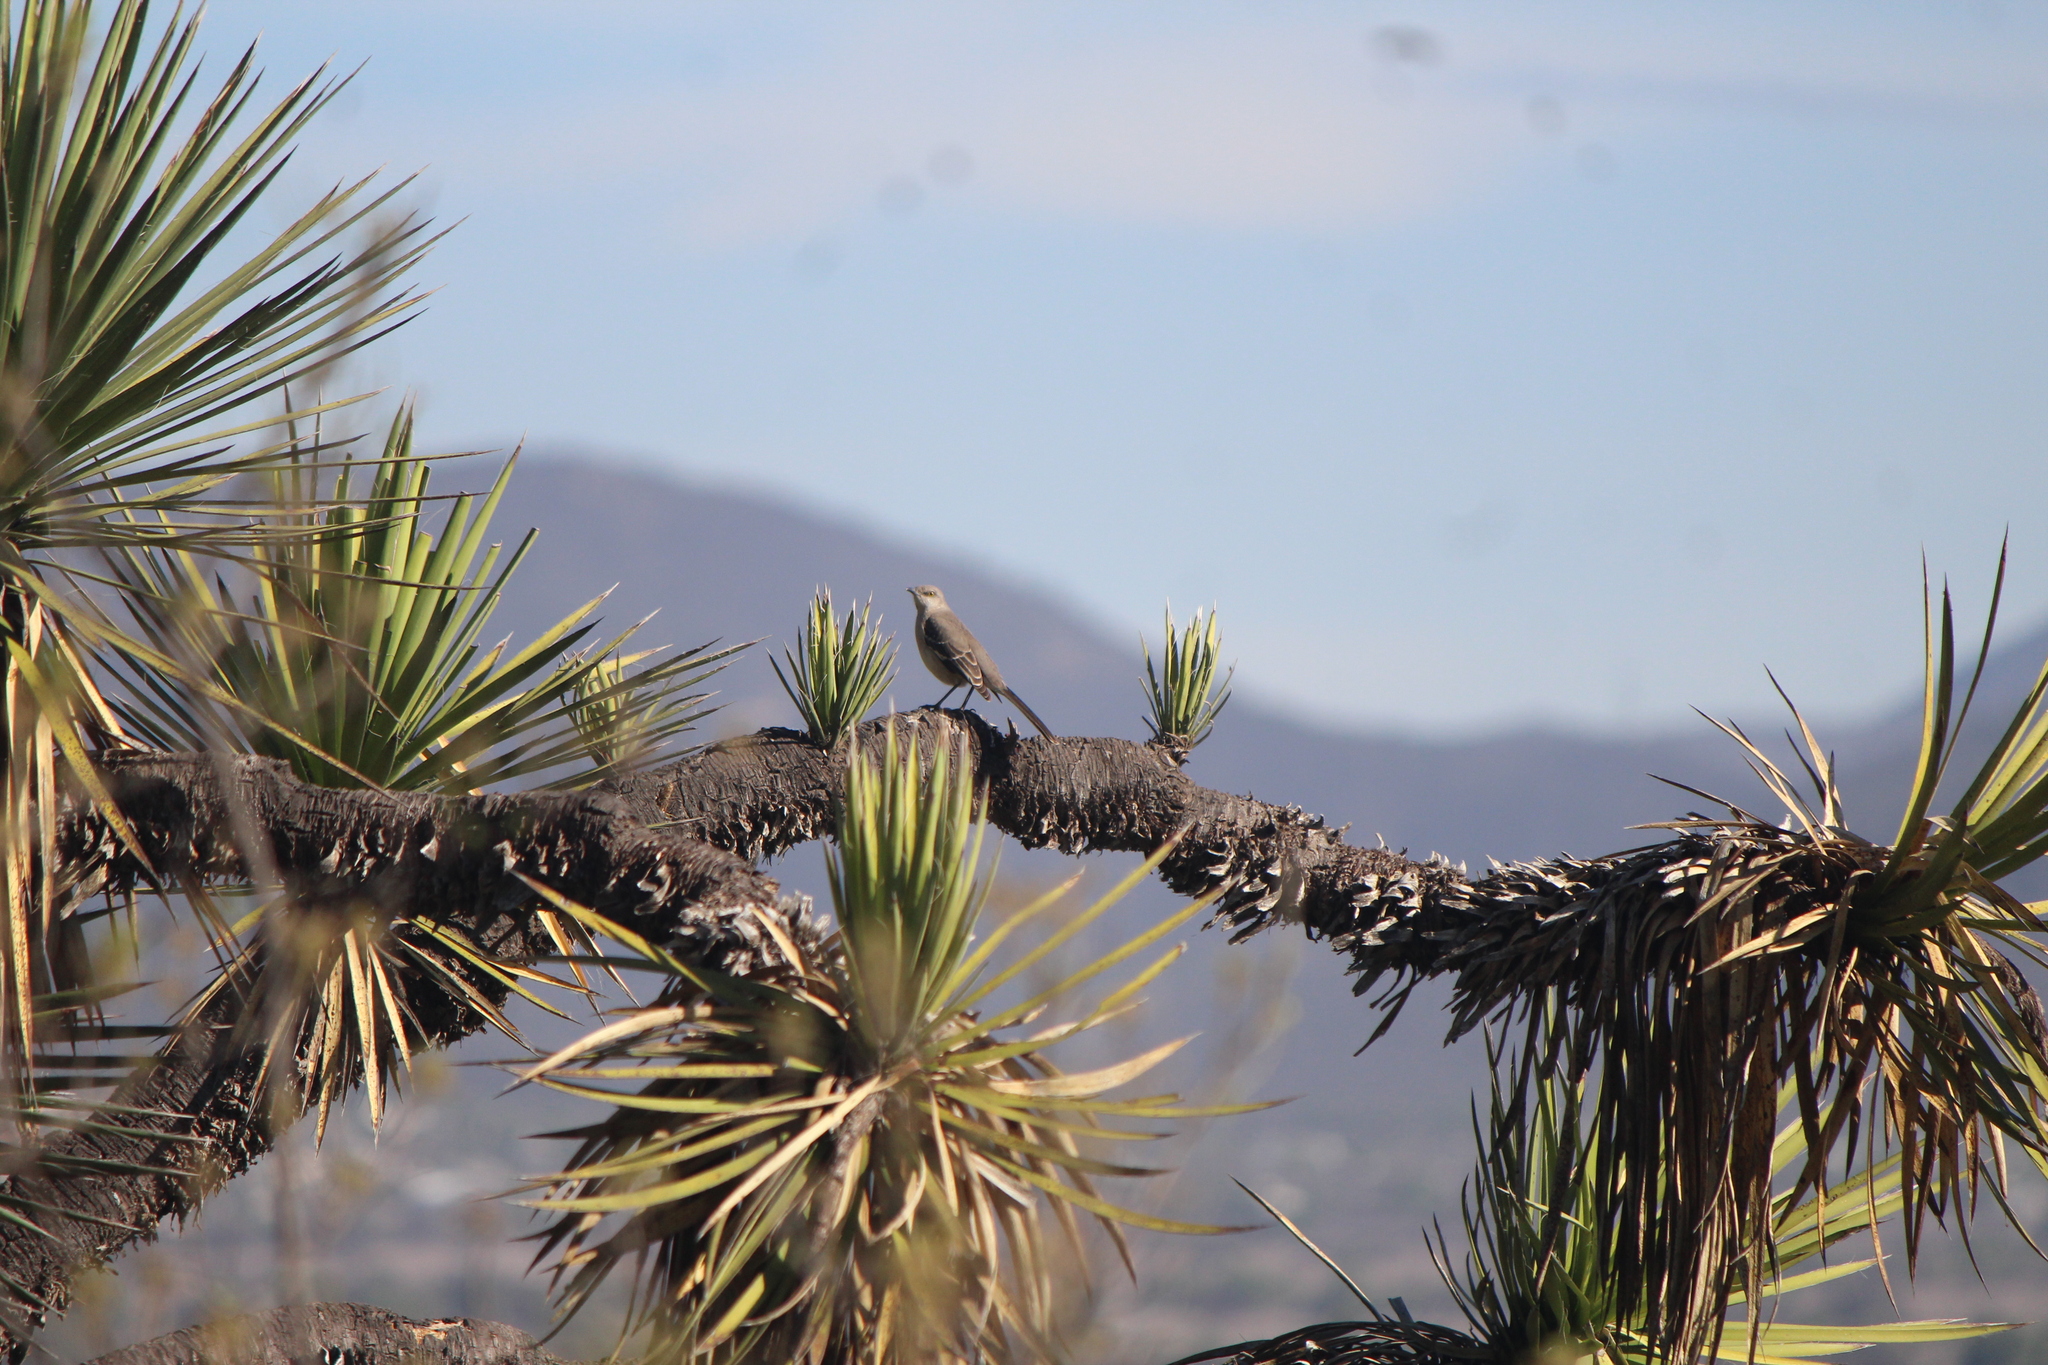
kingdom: Animalia
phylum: Chordata
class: Aves
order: Passeriformes
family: Mimidae
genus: Mimus
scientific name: Mimus polyglottos
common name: Northern mockingbird
